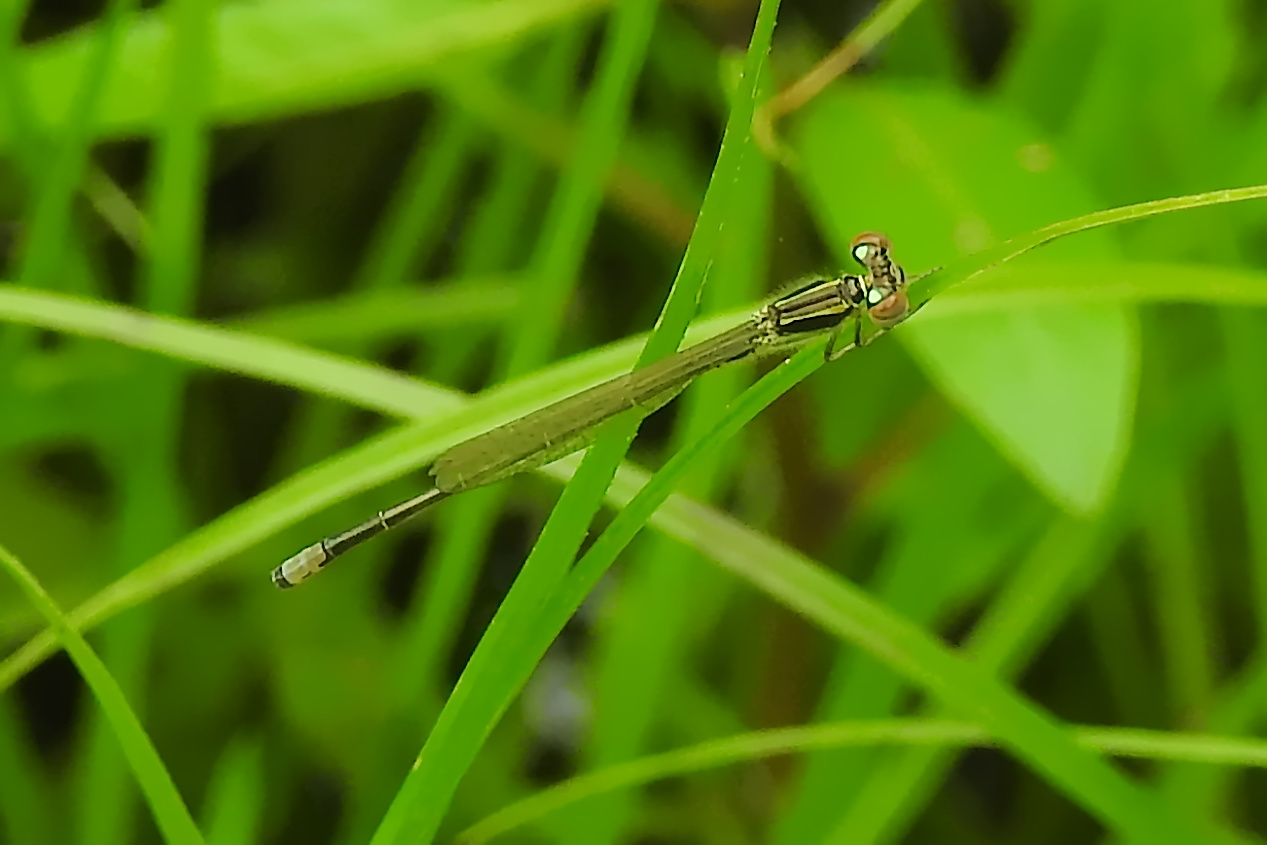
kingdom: Animalia
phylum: Arthropoda
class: Insecta
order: Odonata
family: Coenagrionidae
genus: Ischnura
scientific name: Ischnura verticalis
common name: Eastern forktail
